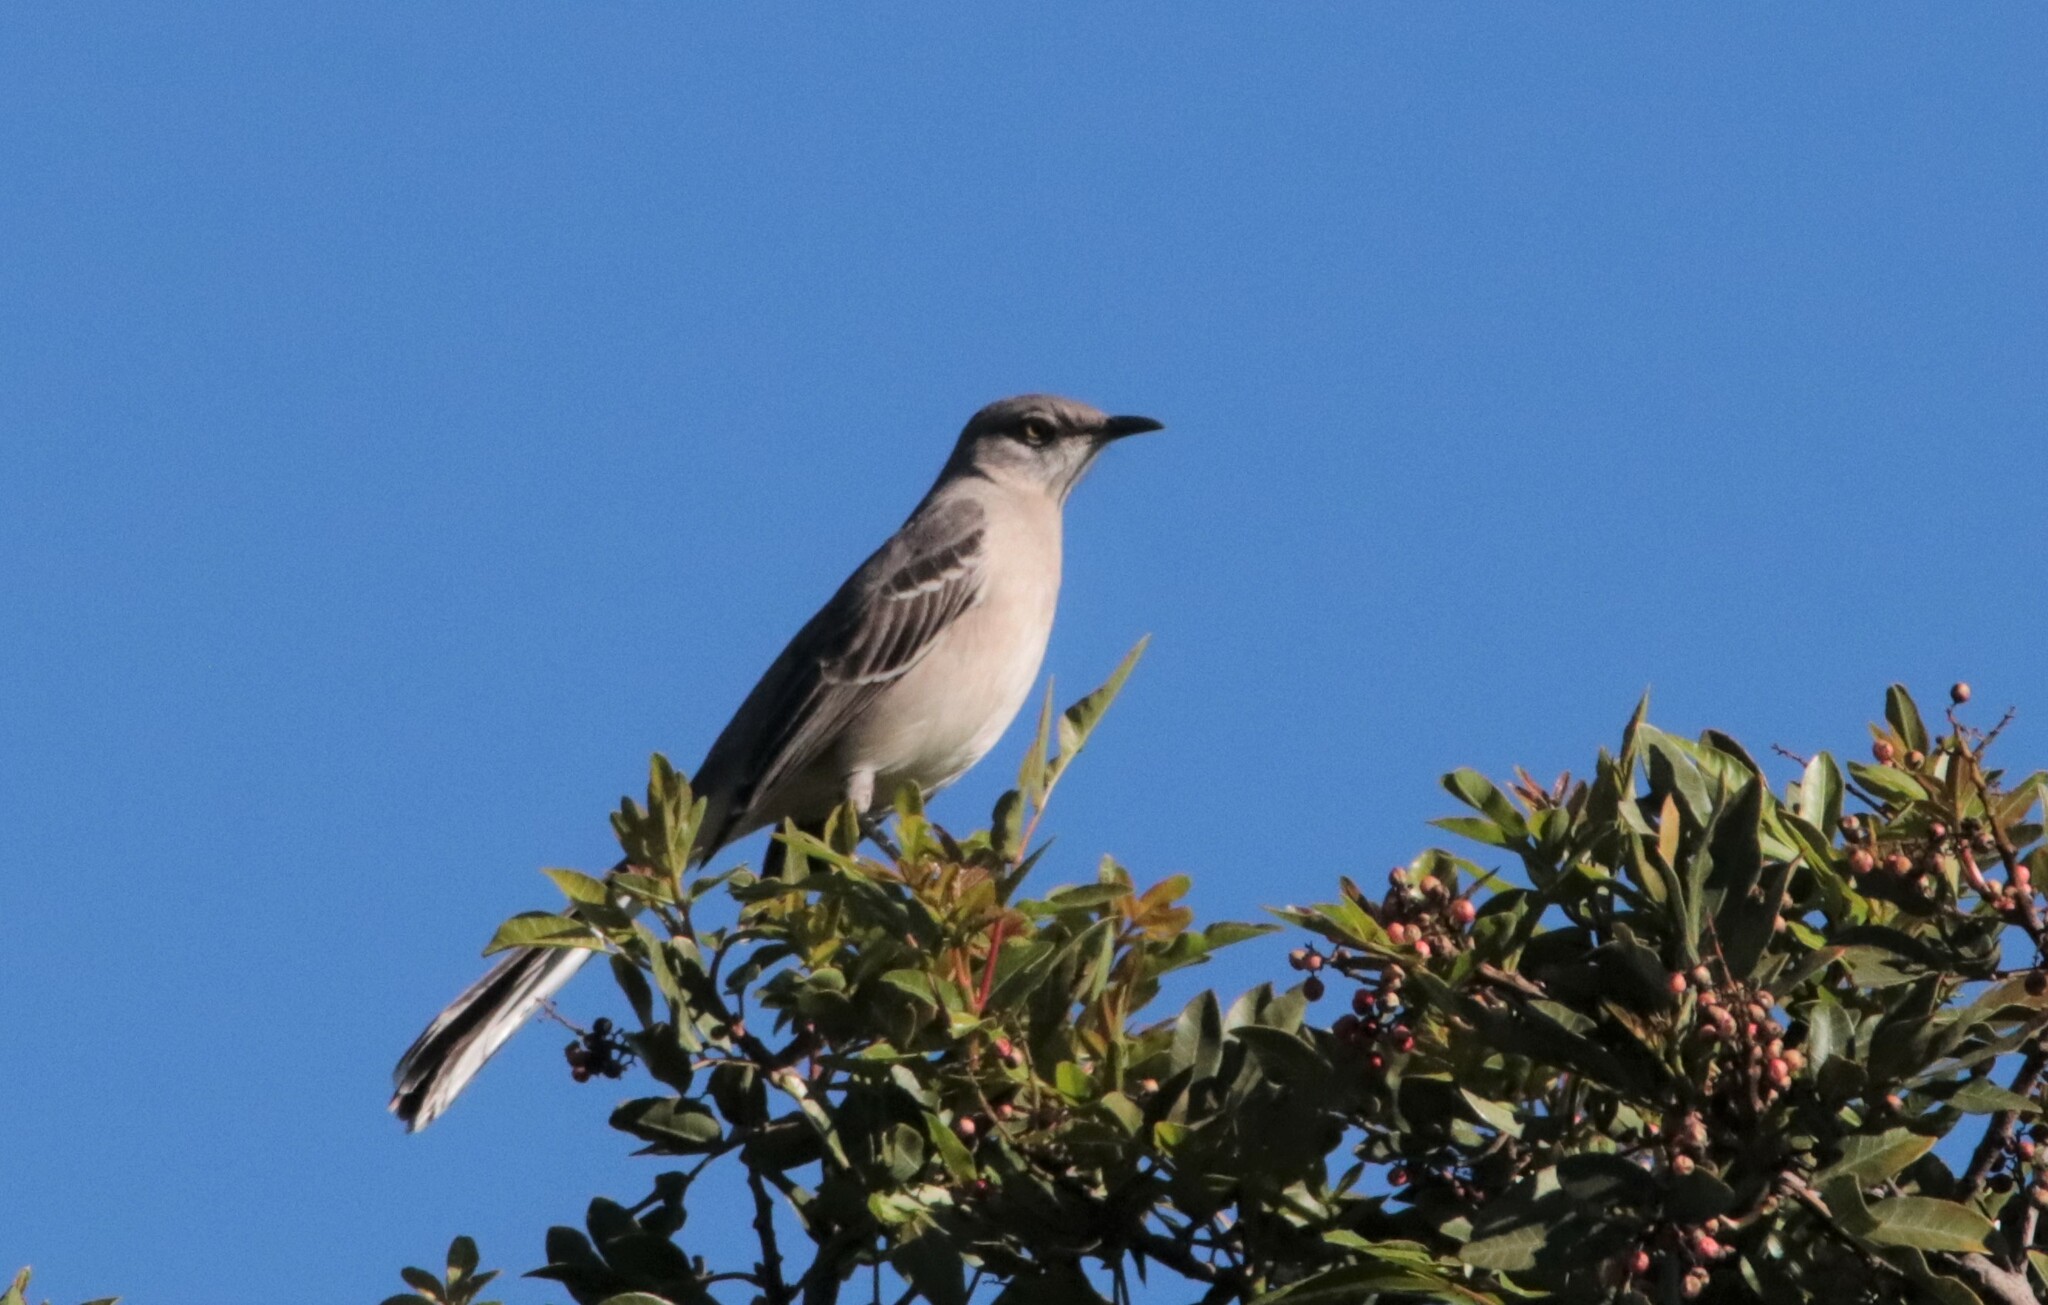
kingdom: Animalia
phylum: Chordata
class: Aves
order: Passeriformes
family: Mimidae
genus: Mimus
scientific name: Mimus polyglottos
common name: Northern mockingbird
